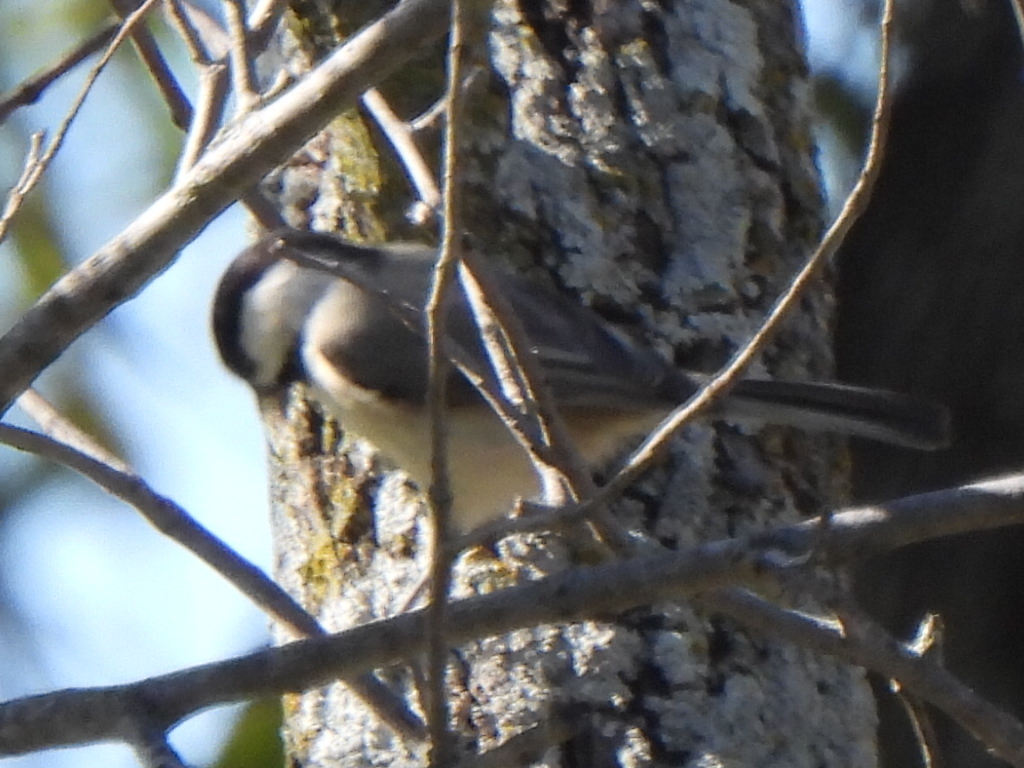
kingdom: Animalia
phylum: Chordata
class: Aves
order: Passeriformes
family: Paridae
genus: Poecile
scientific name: Poecile carolinensis
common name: Carolina chickadee
